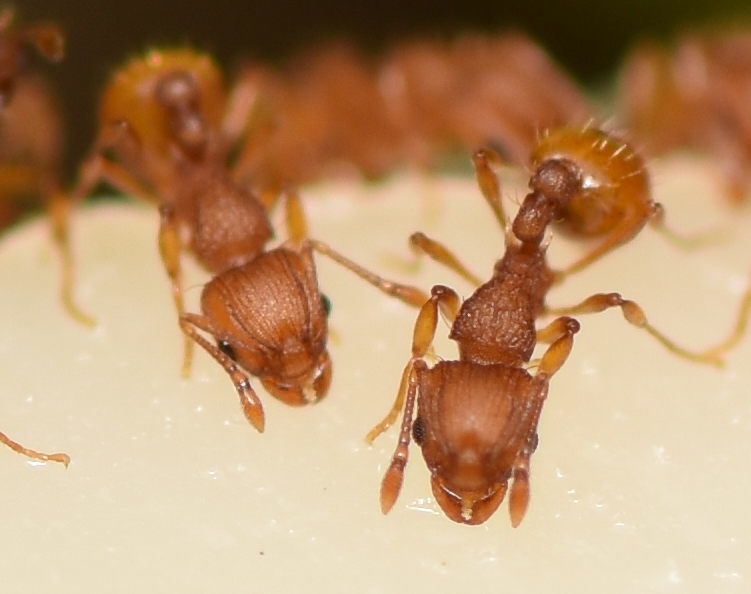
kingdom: Animalia
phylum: Arthropoda
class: Insecta
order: Hymenoptera
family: Formicidae
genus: Wasmannia
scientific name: Wasmannia auropunctata
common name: Little fire ant
